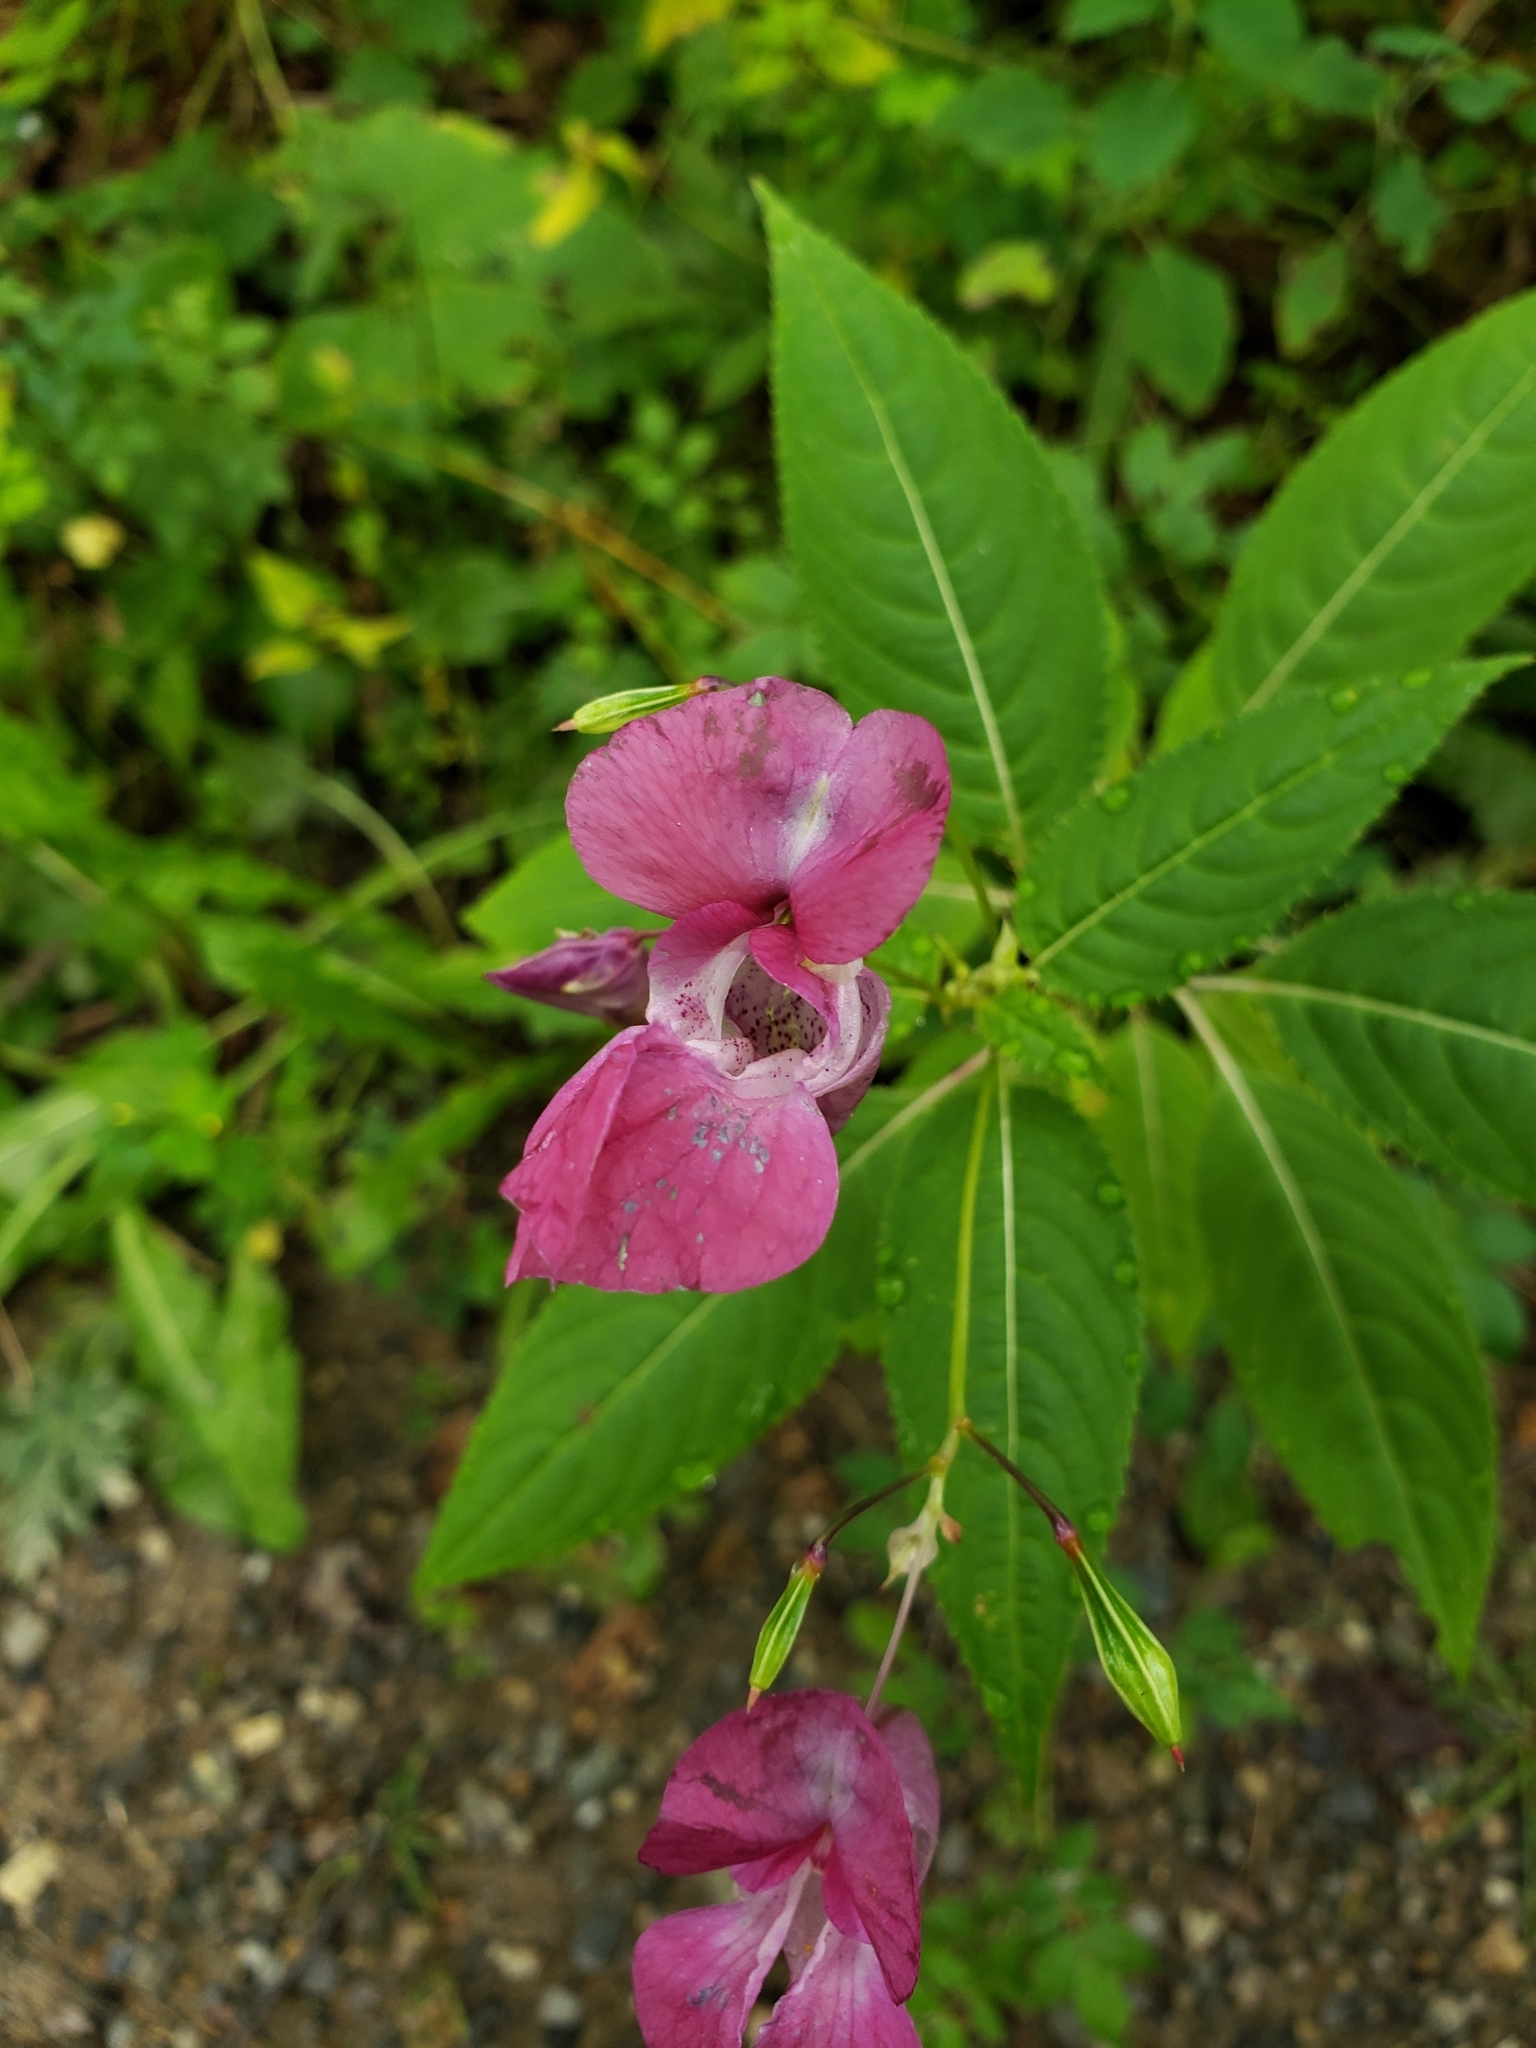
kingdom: Plantae
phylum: Tracheophyta
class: Magnoliopsida
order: Ericales
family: Balsaminaceae
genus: Impatiens
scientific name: Impatiens glandulifera
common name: Himalayan balsam
